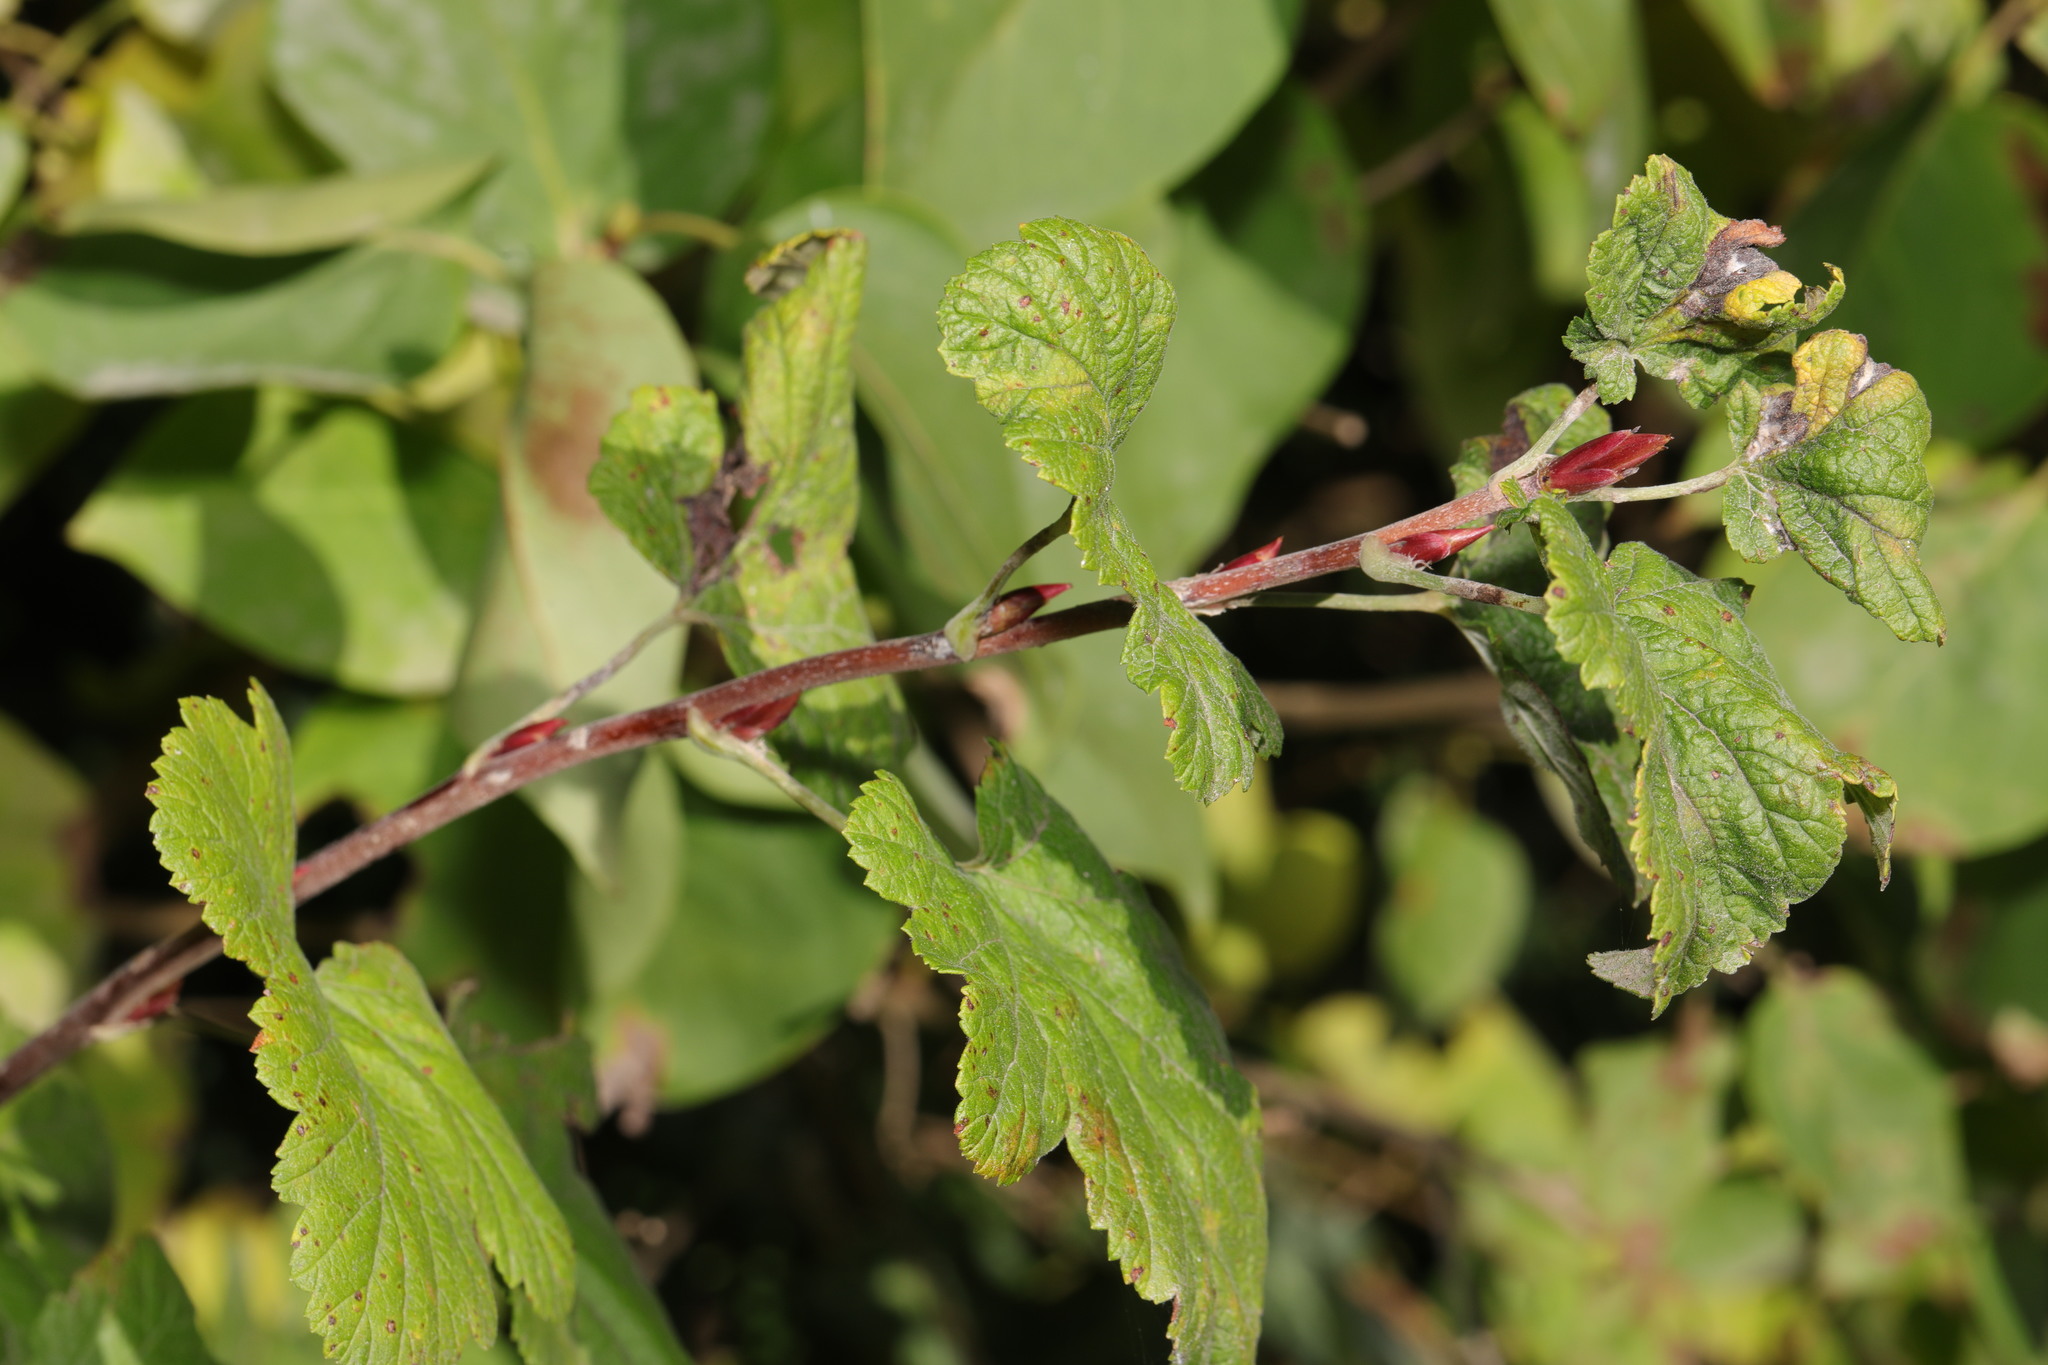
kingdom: Plantae
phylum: Tracheophyta
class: Magnoliopsida
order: Saxifragales
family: Grossulariaceae
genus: Ribes
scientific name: Ribes sanguineum
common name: Flowering currant
